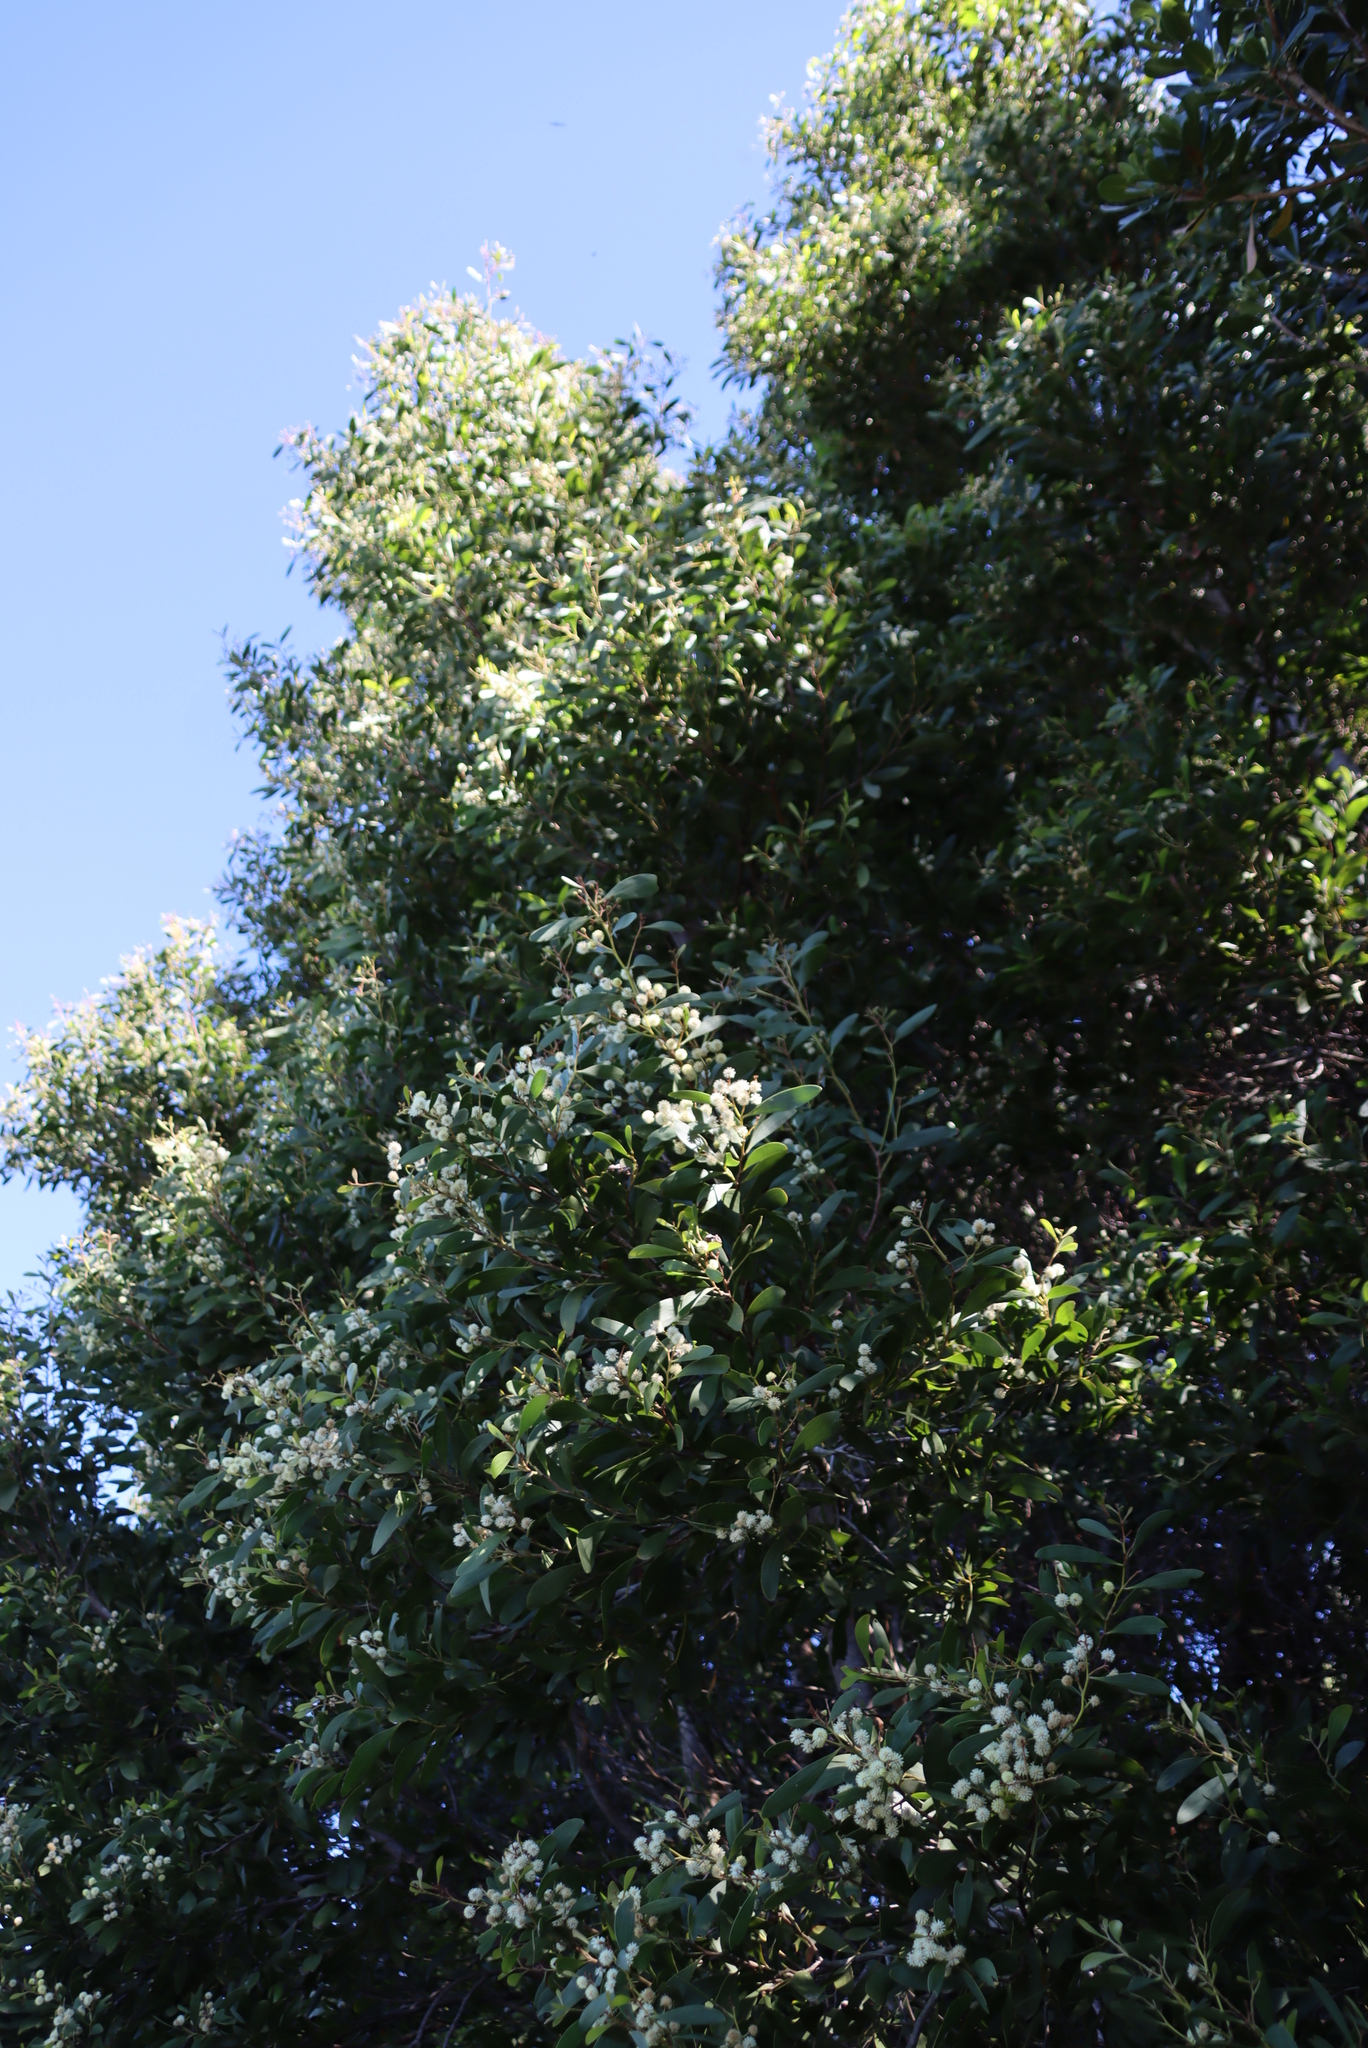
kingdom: Plantae
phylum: Tracheophyta
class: Magnoliopsida
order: Fabales
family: Fabaceae
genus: Acacia
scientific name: Acacia melanoxylon
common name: Blackwood
